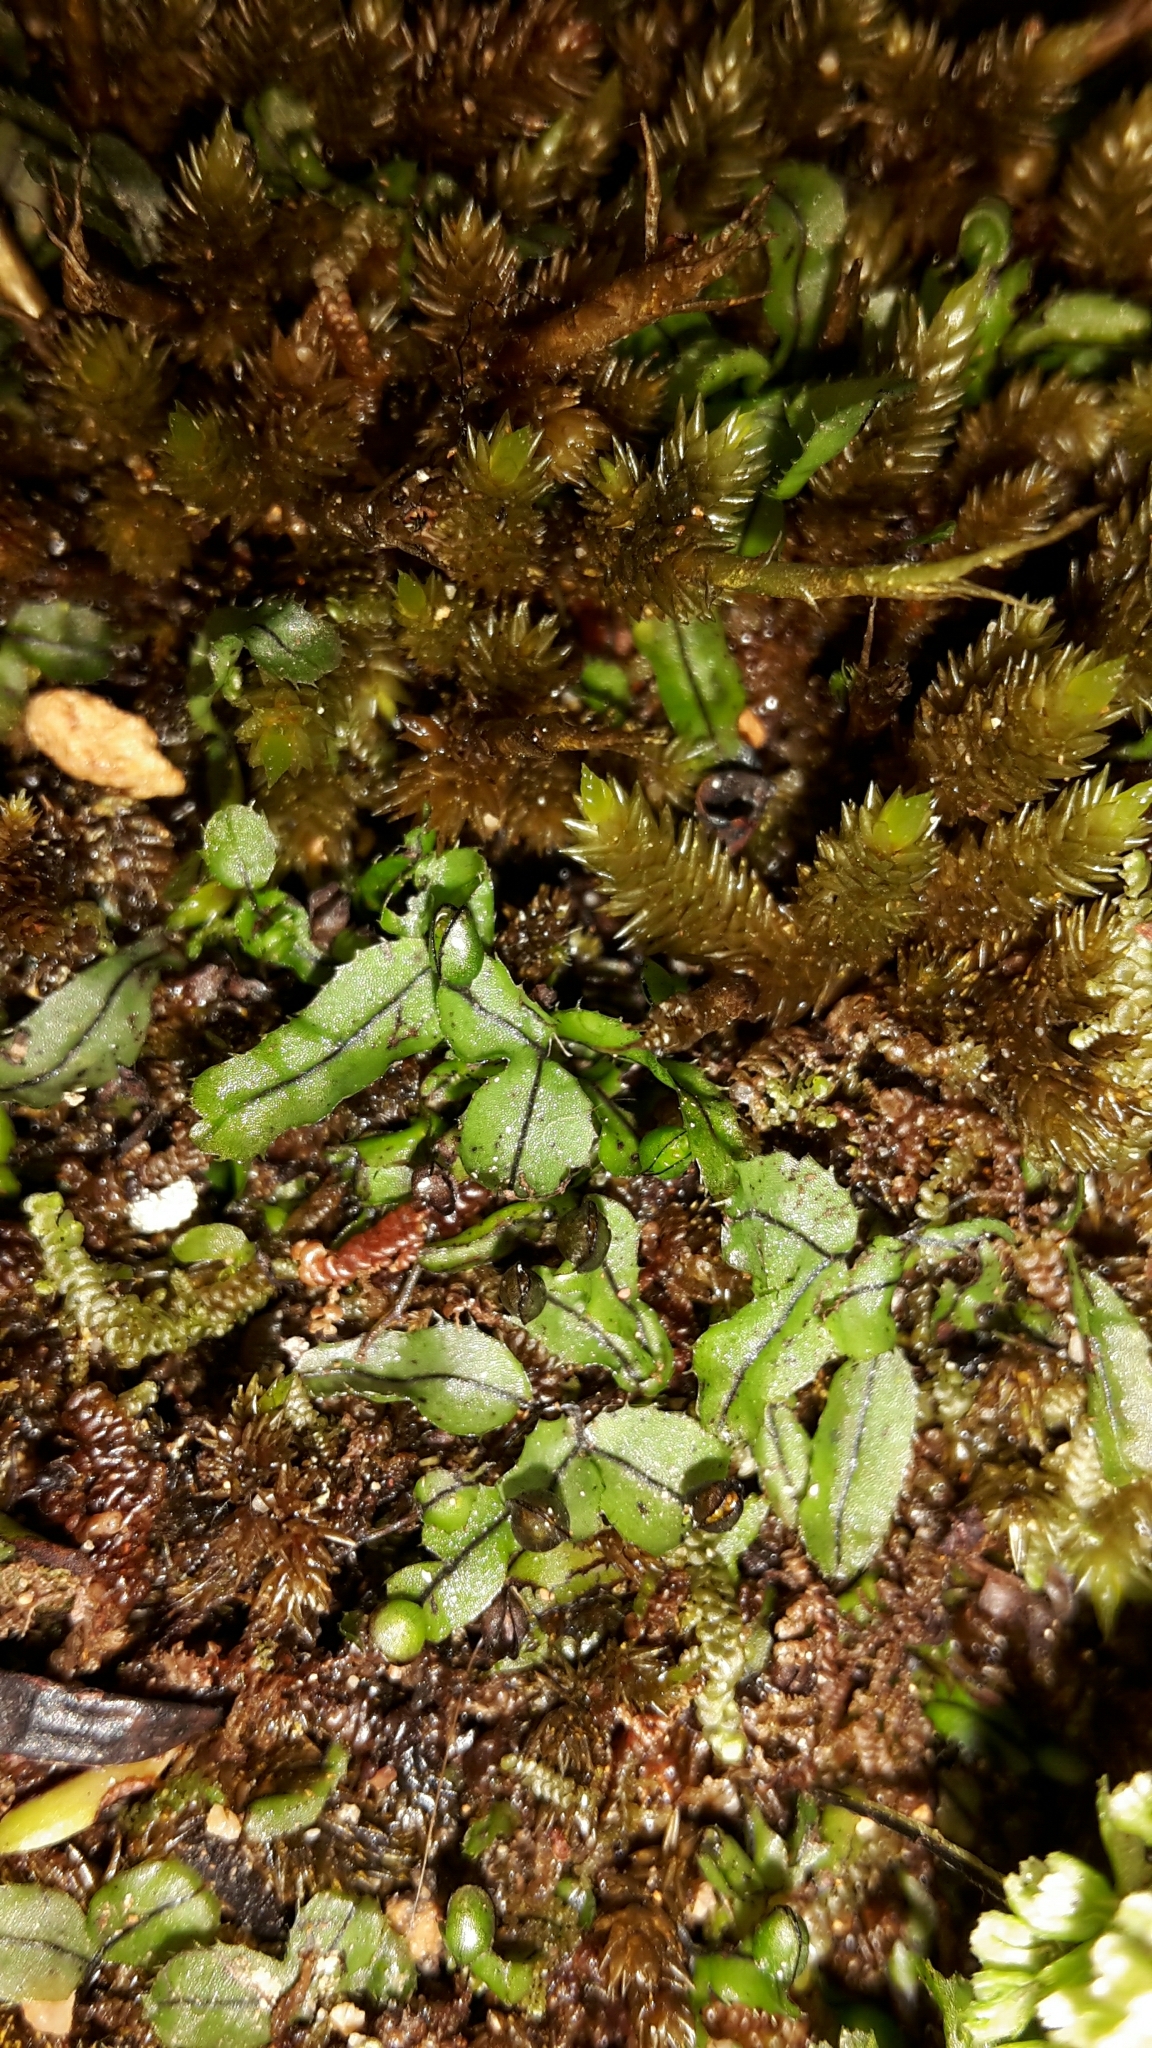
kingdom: Plantae
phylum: Tracheophyta
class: Polypodiopsida
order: Hymenophyllales
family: Hymenophyllaceae
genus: Hymenophyllum
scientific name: Hymenophyllum armstrongii
